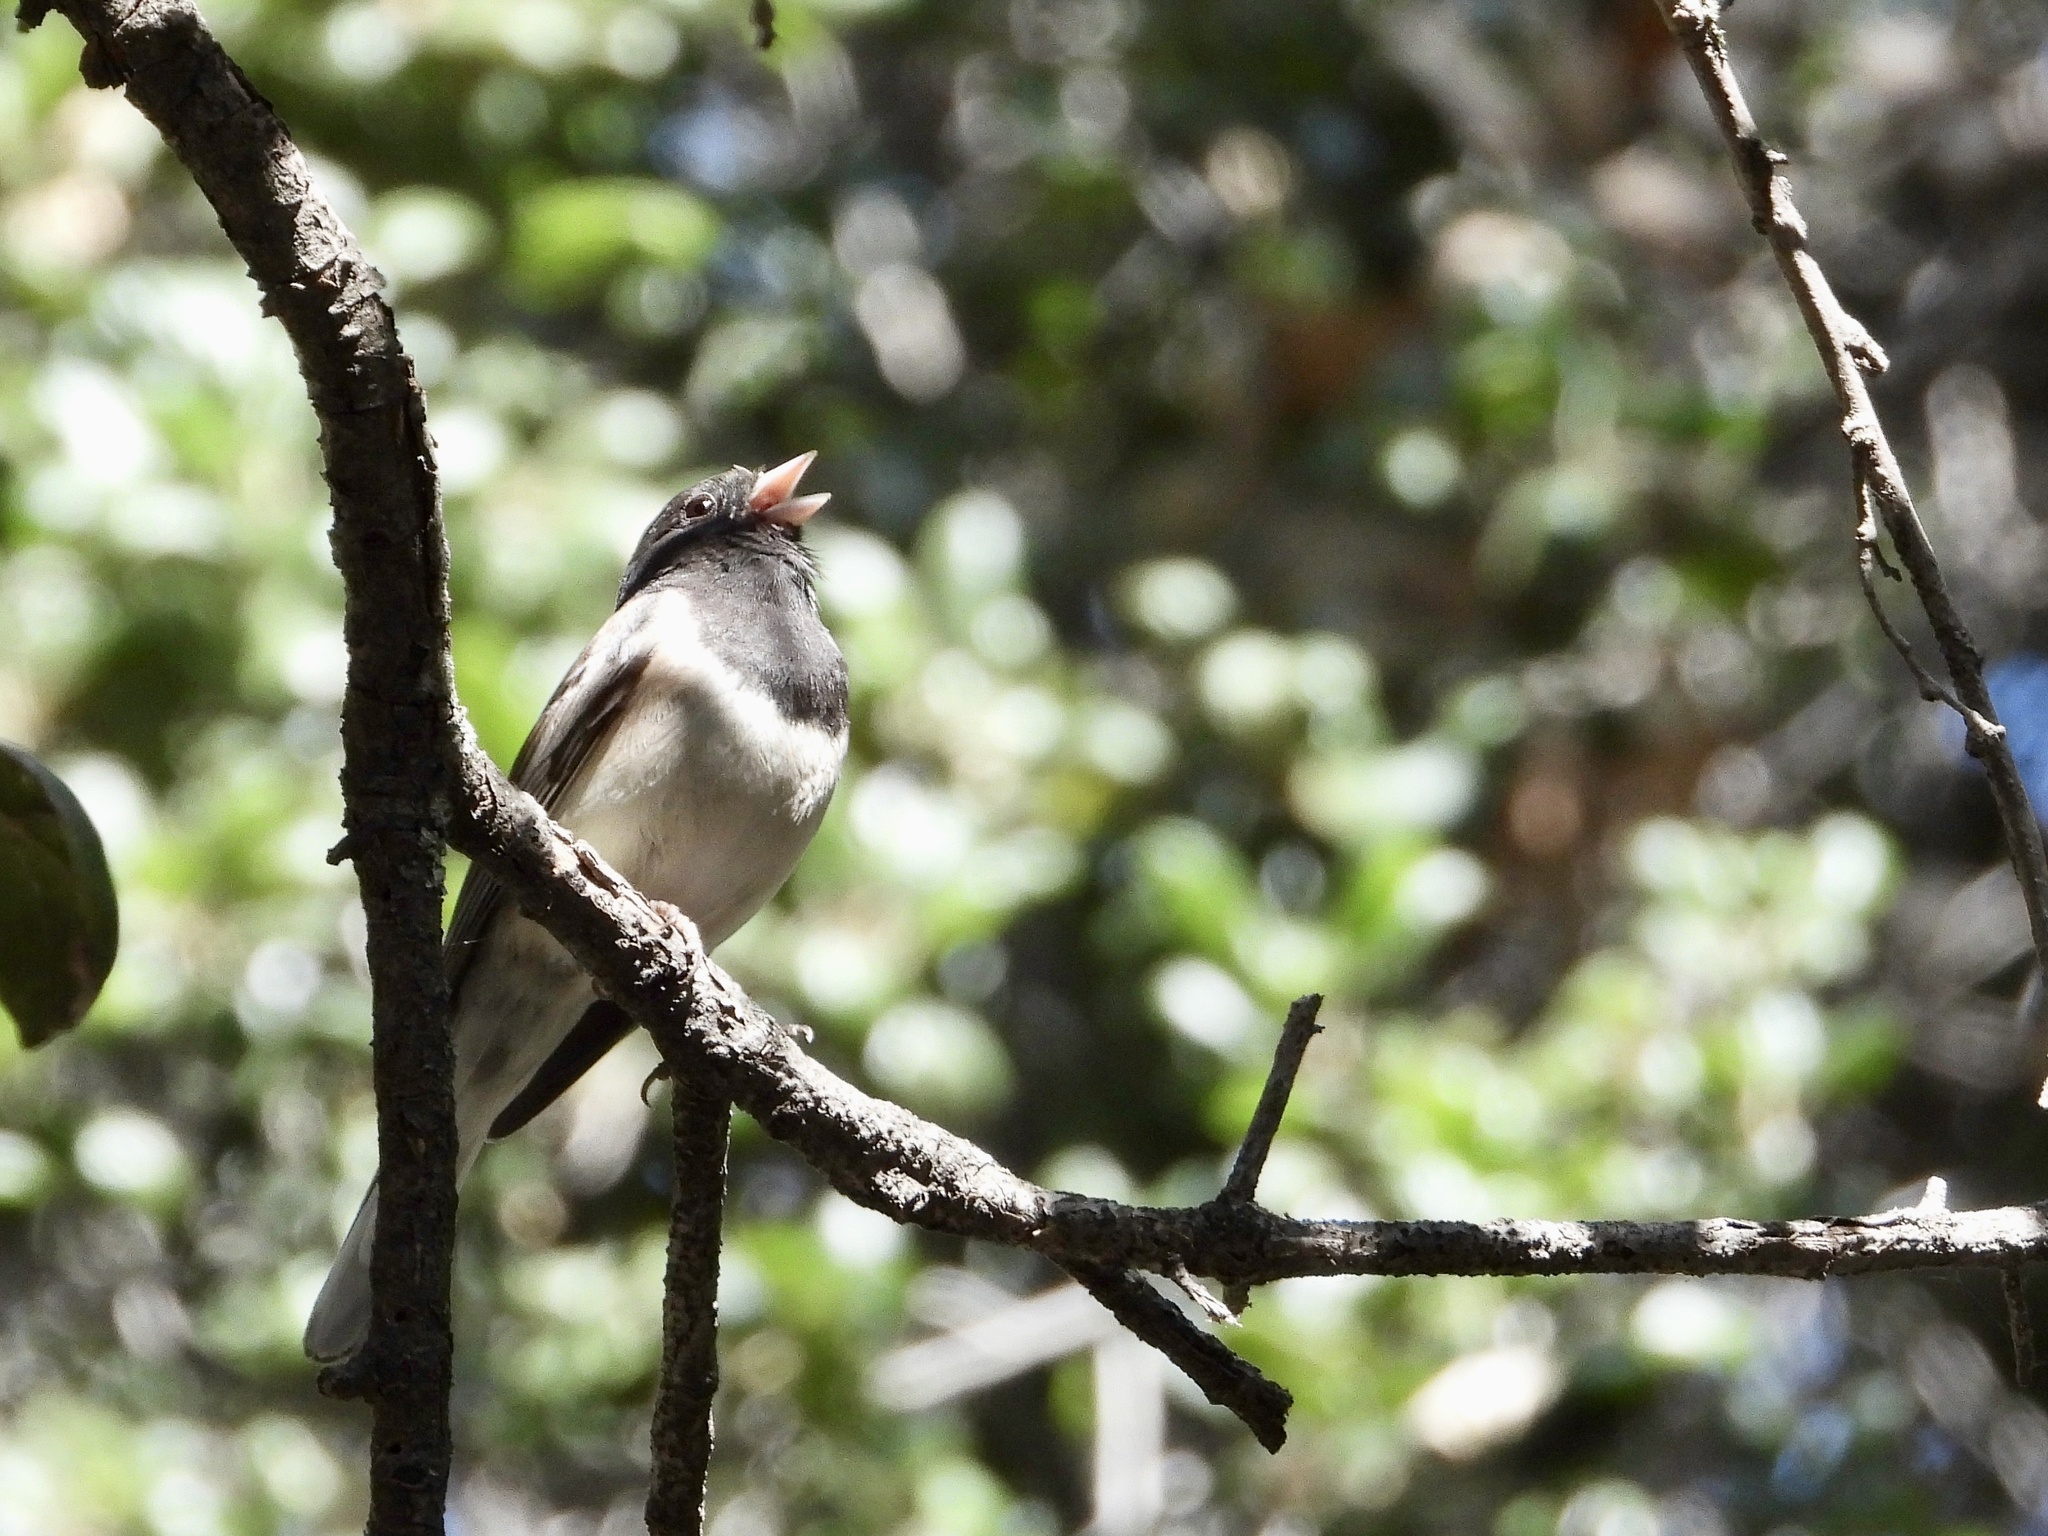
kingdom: Animalia
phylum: Chordata
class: Aves
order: Passeriformes
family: Passerellidae
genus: Junco
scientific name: Junco hyemalis
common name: Dark-eyed junco
